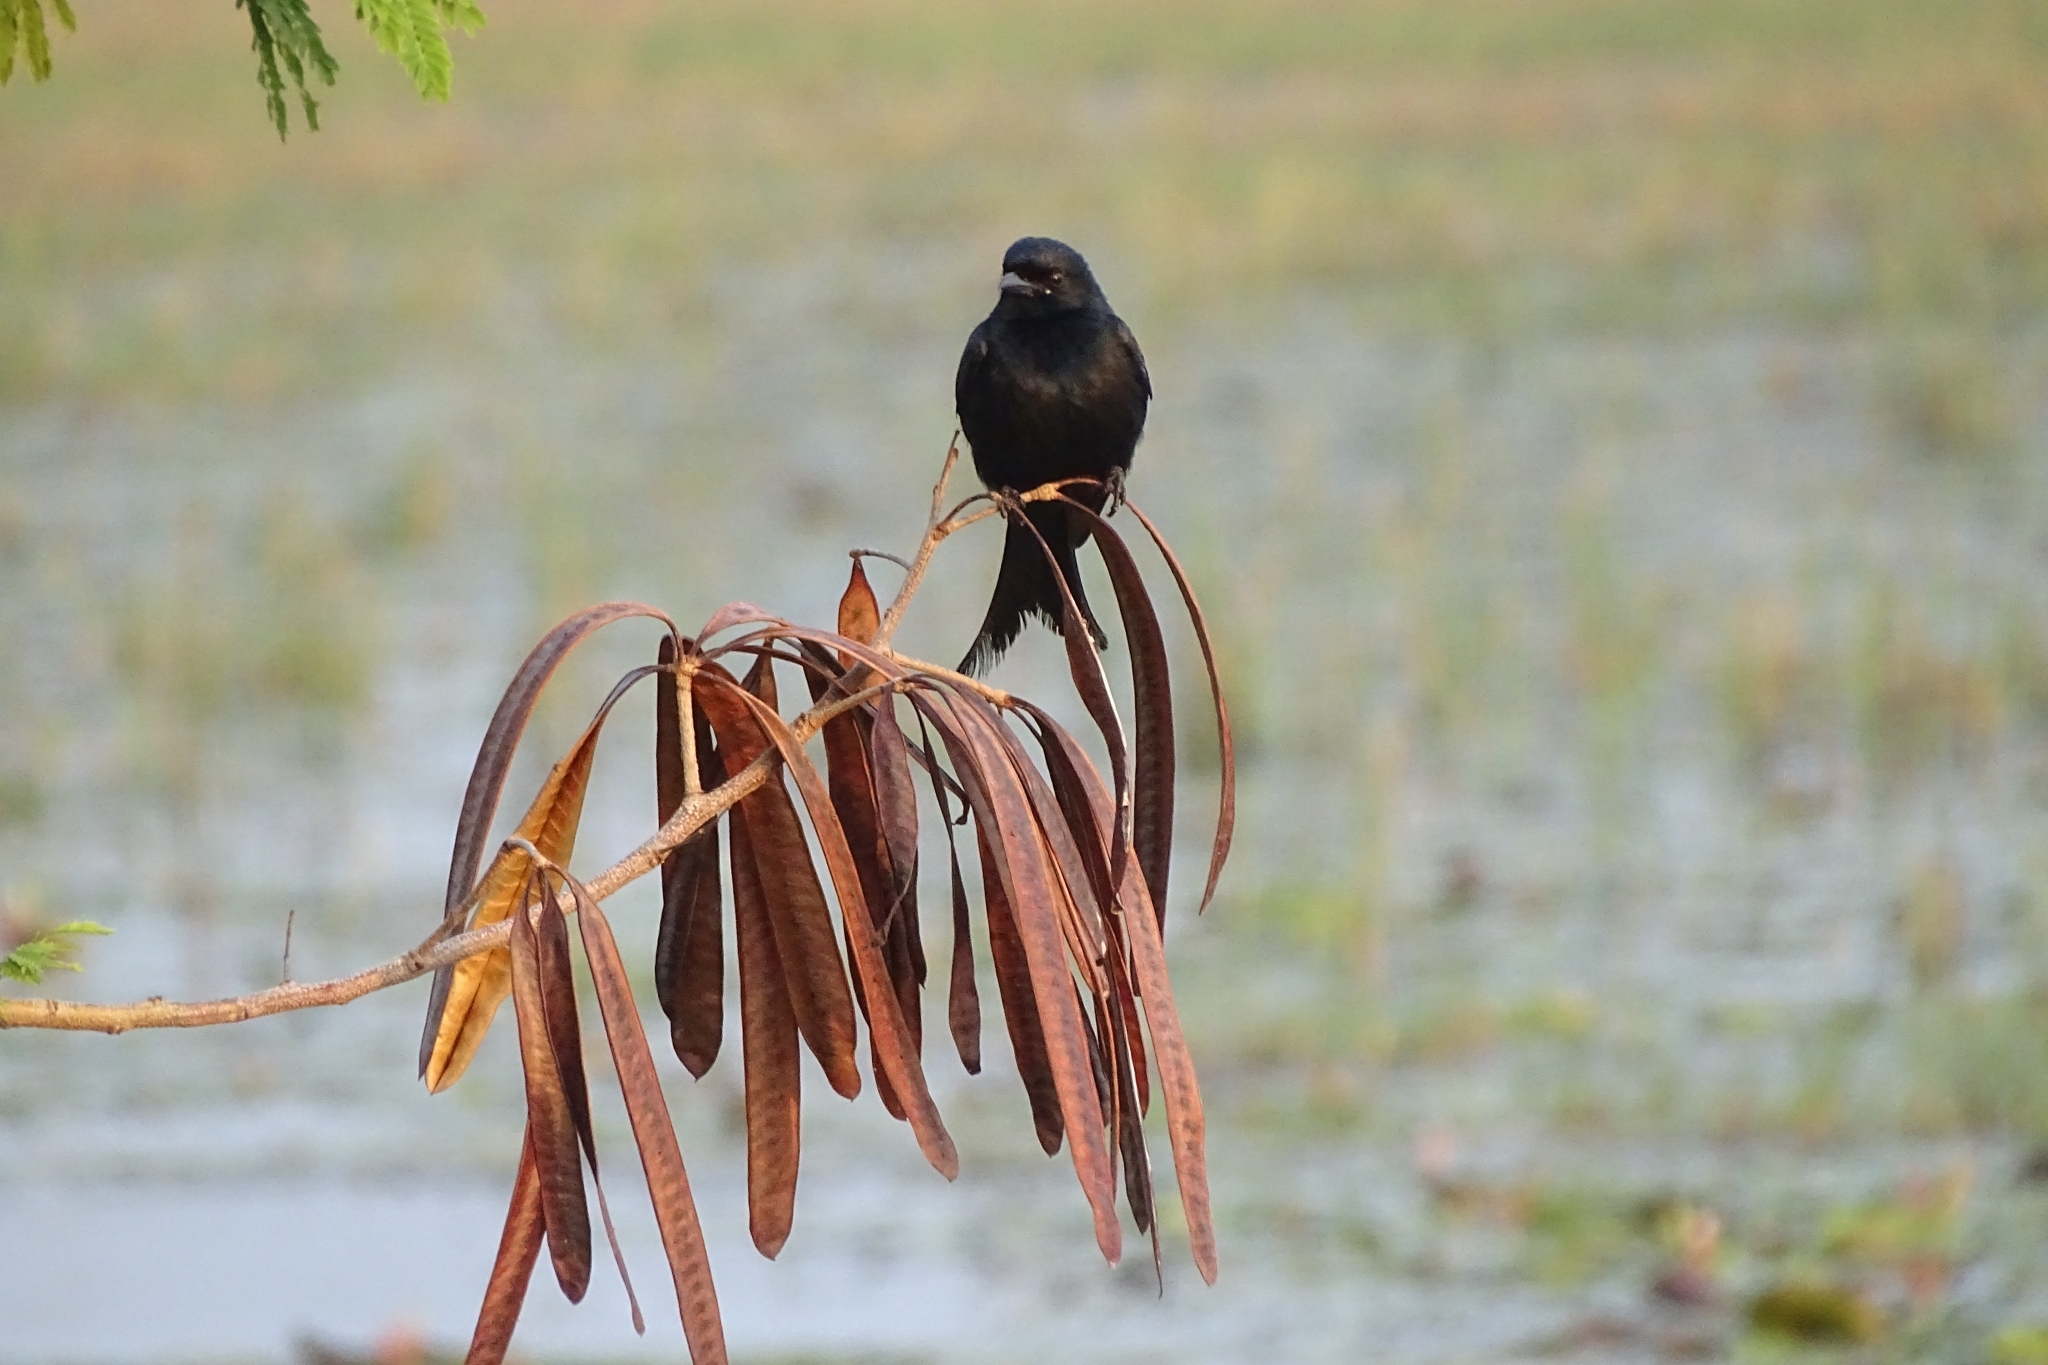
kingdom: Animalia
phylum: Chordata
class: Aves
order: Passeriformes
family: Dicruridae
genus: Dicrurus
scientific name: Dicrurus macrocercus
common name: Black drongo
